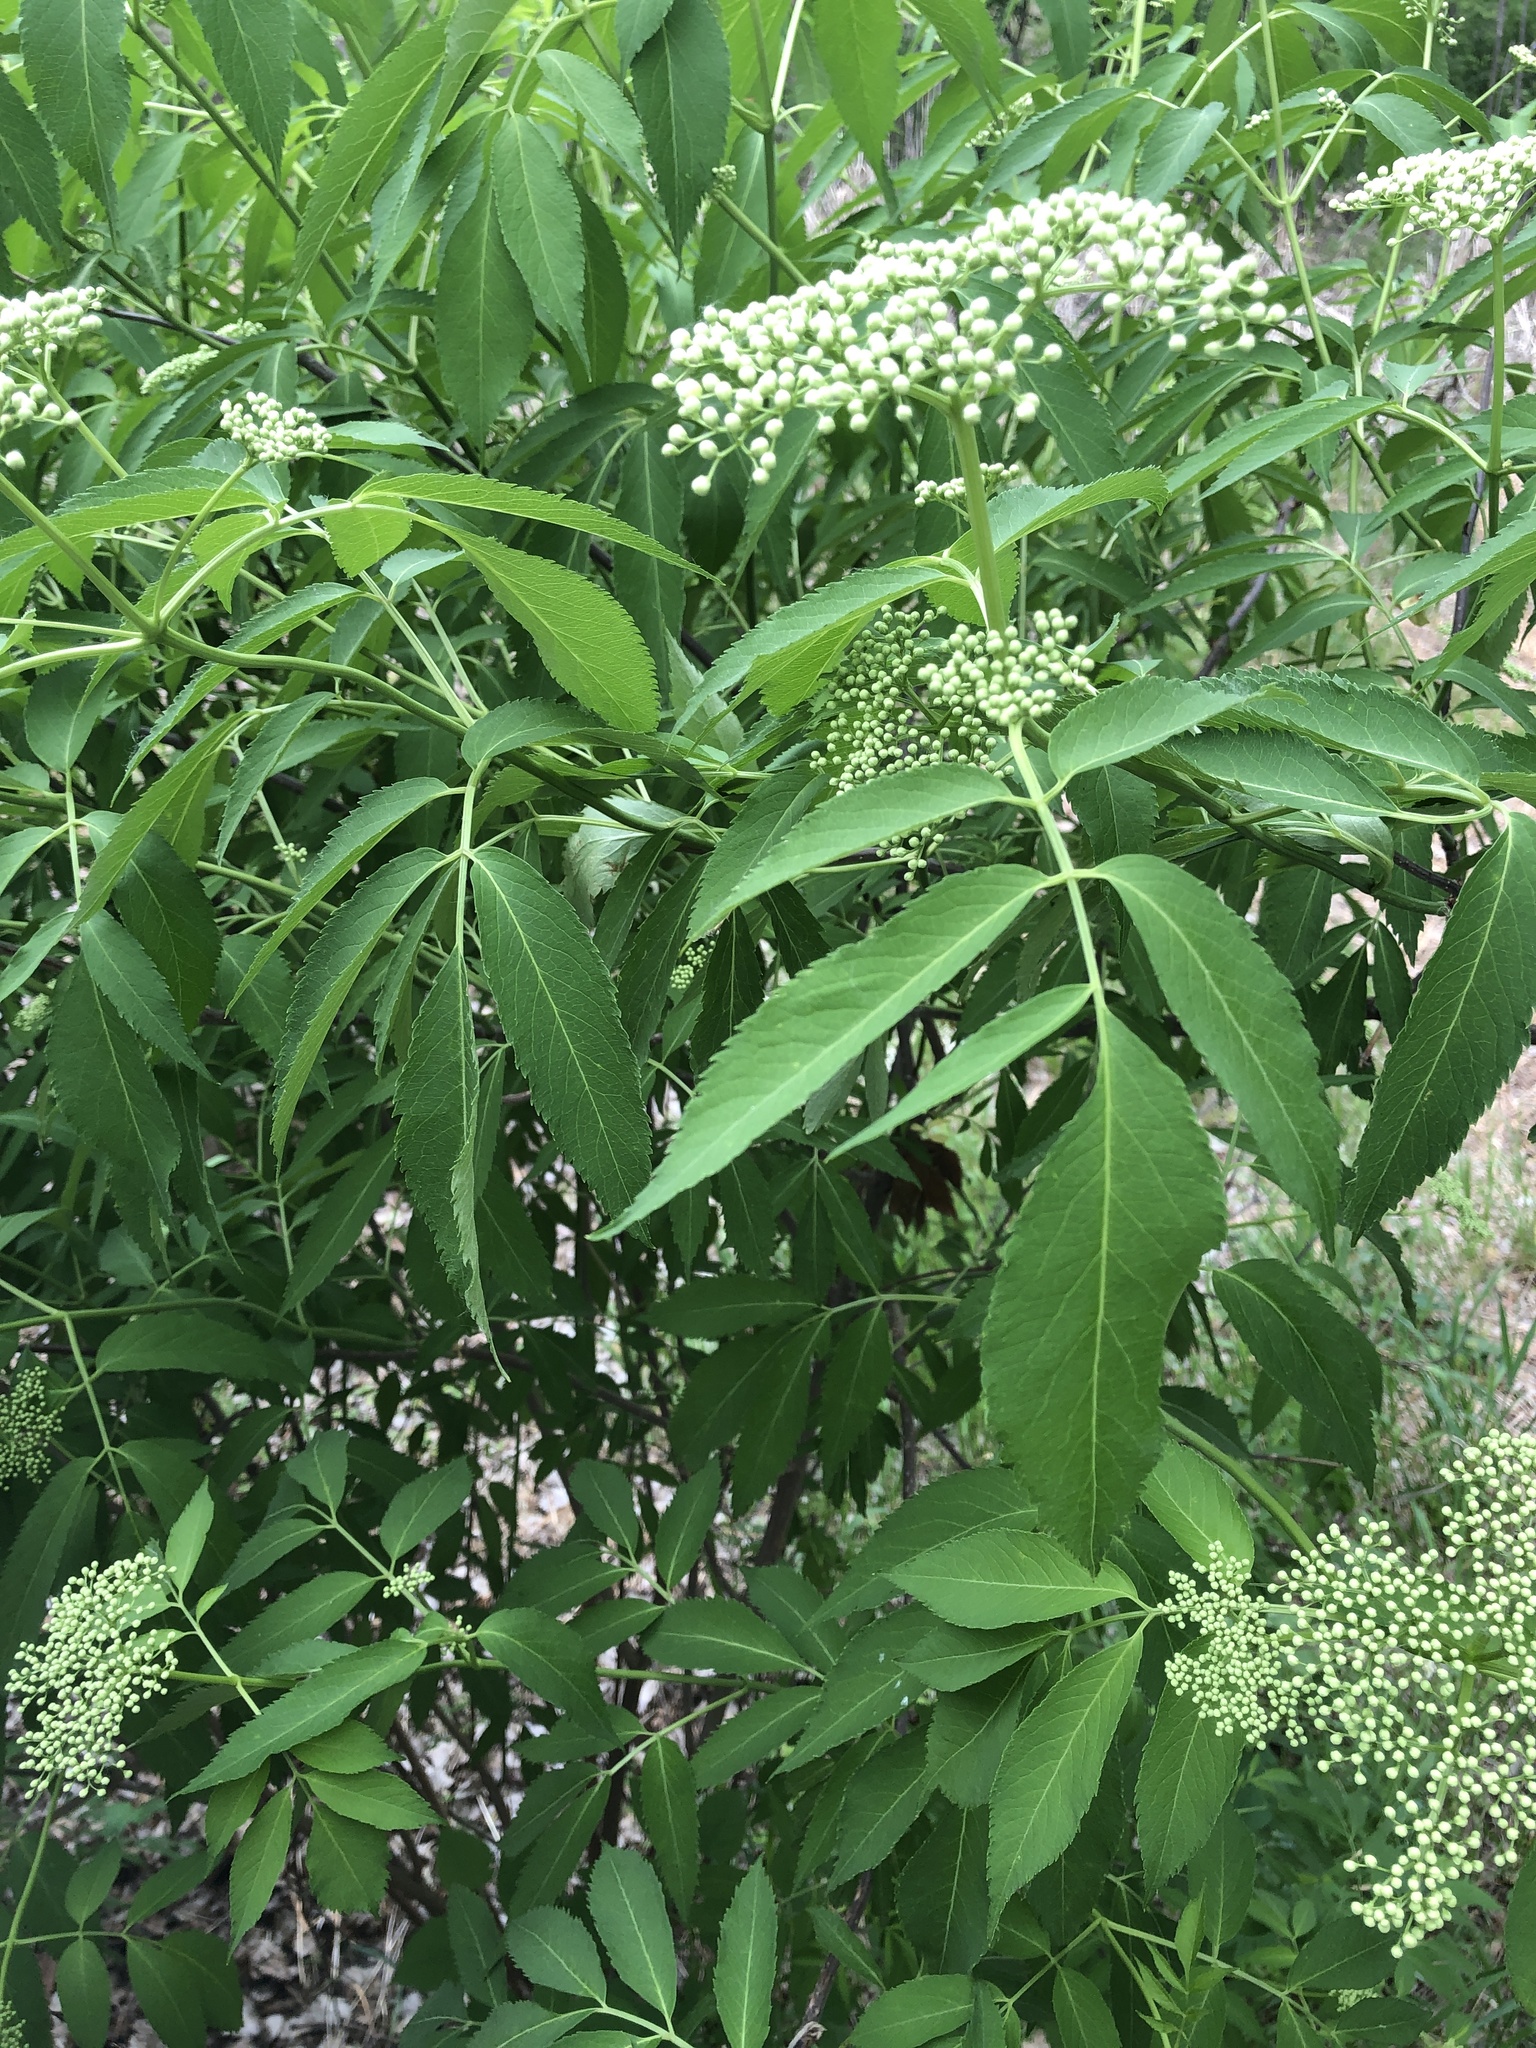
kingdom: Plantae
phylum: Tracheophyta
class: Magnoliopsida
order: Dipsacales
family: Viburnaceae
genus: Sambucus
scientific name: Sambucus canadensis
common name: American elder
